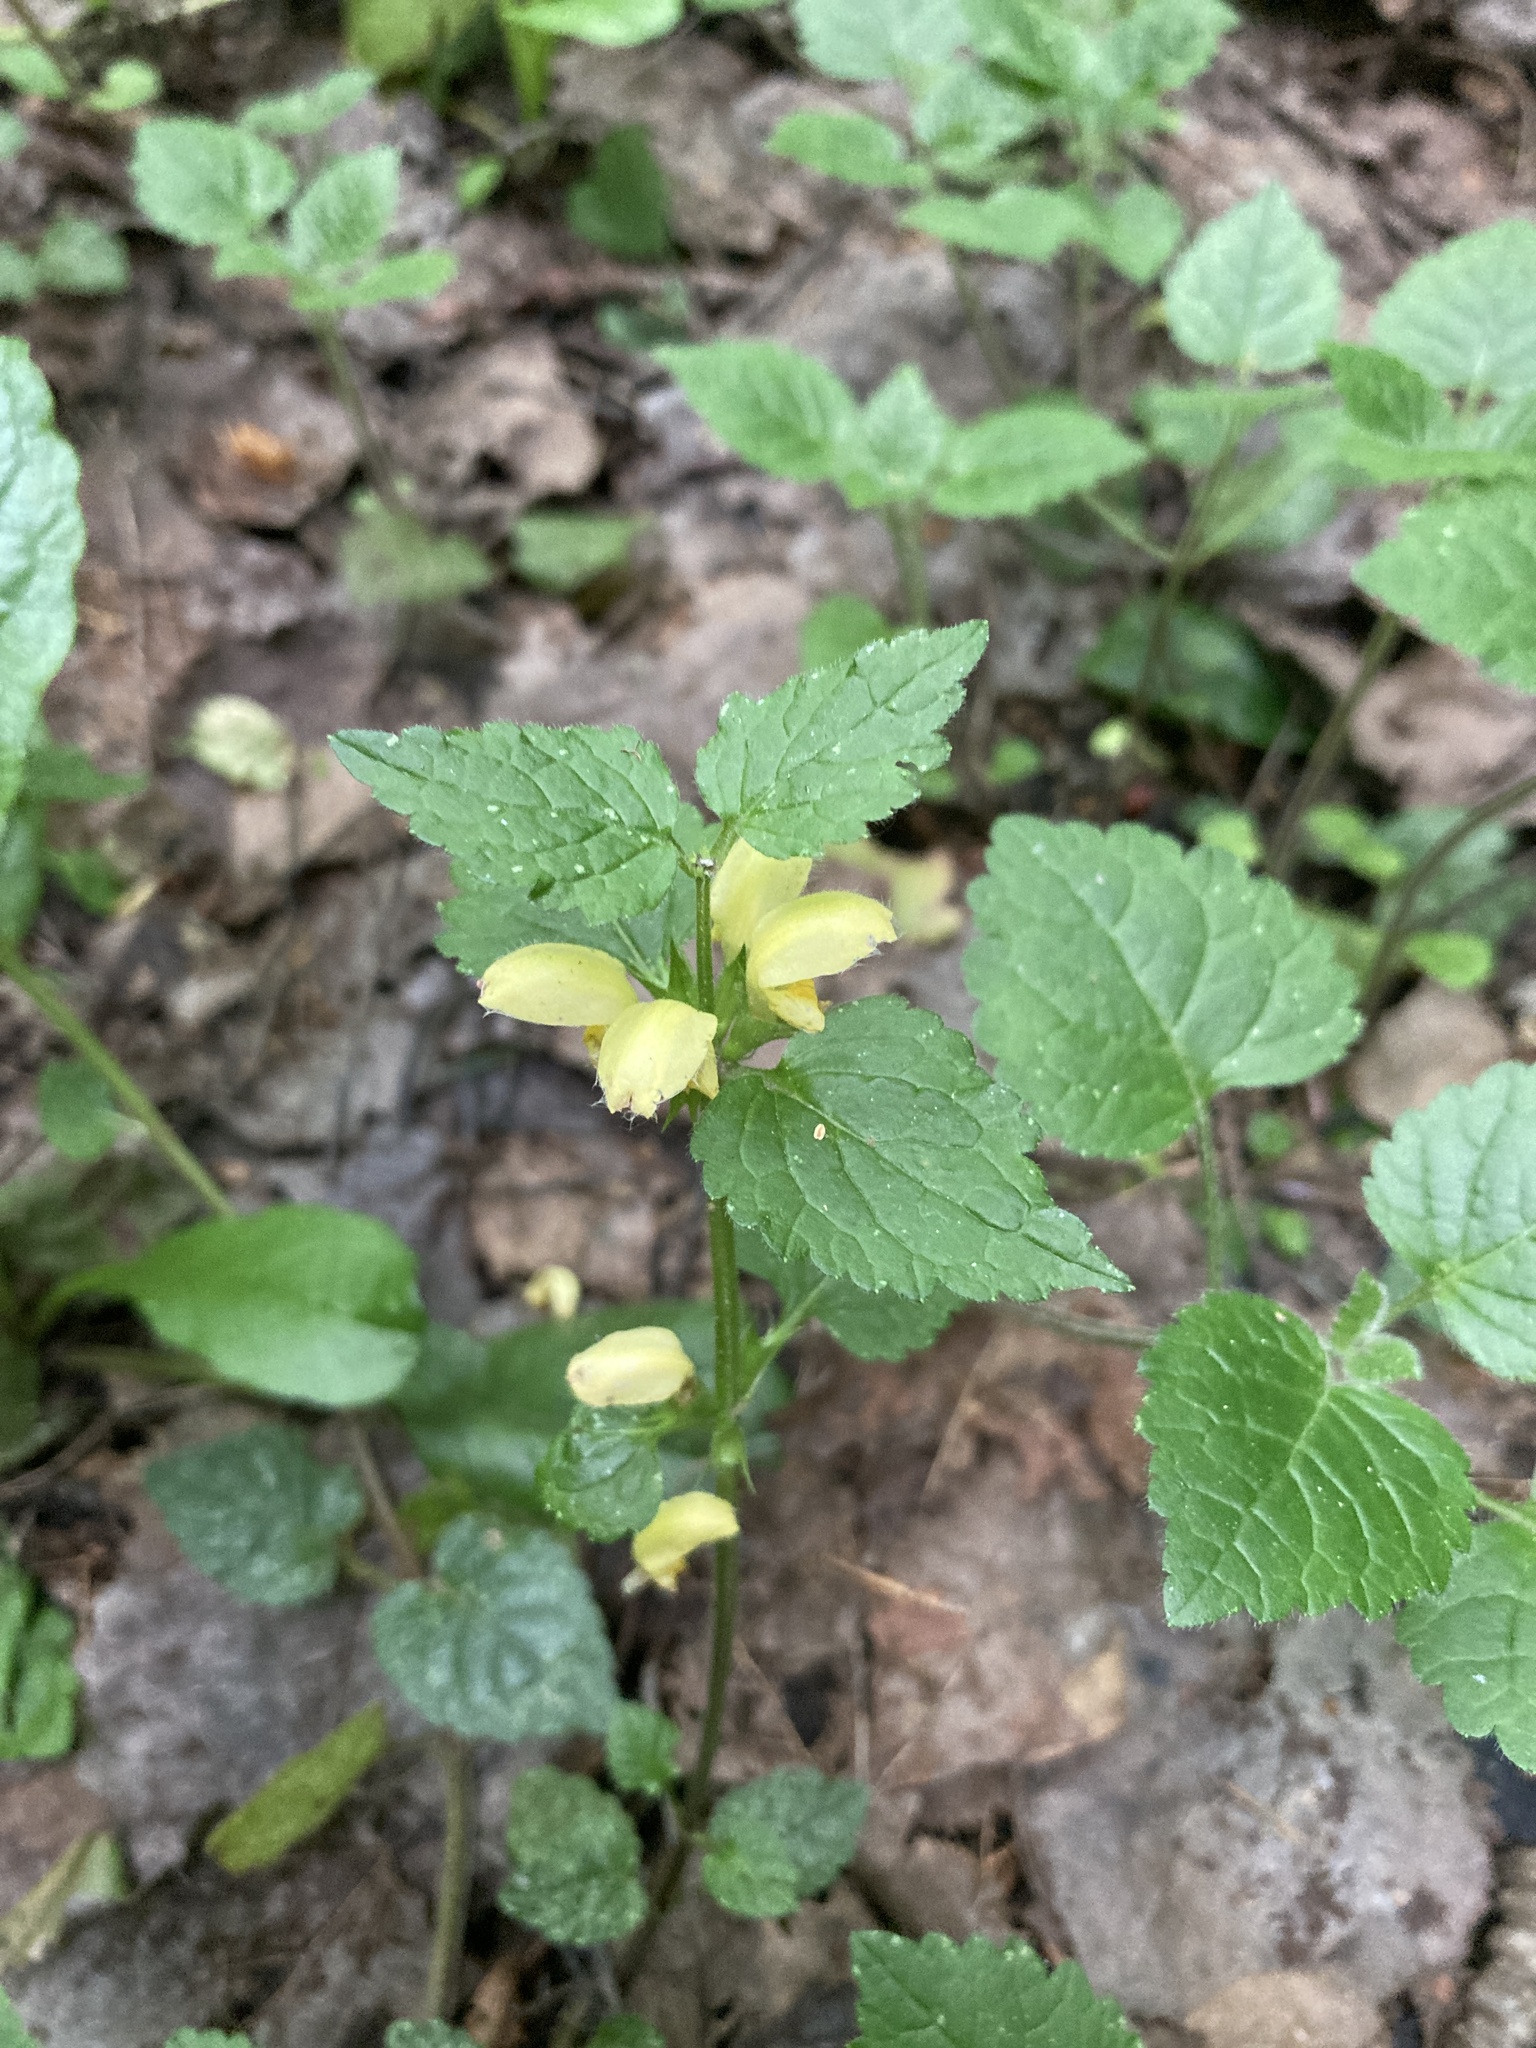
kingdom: Plantae
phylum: Tracheophyta
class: Magnoliopsida
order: Lamiales
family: Lamiaceae
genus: Lamium
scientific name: Lamium galeobdolon
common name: Yellow archangel
